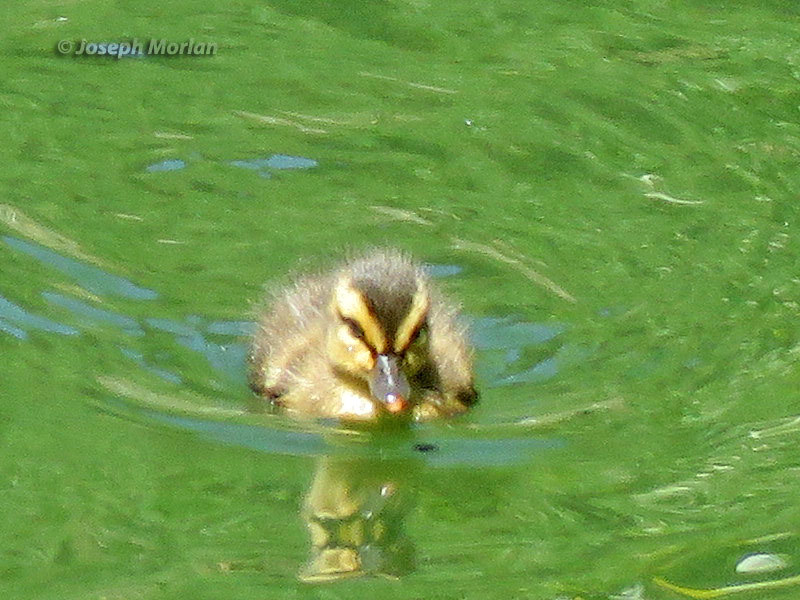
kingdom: Animalia
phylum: Chordata
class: Aves
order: Anseriformes
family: Anatidae
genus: Anas
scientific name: Anas platyrhynchos
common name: Mallard
